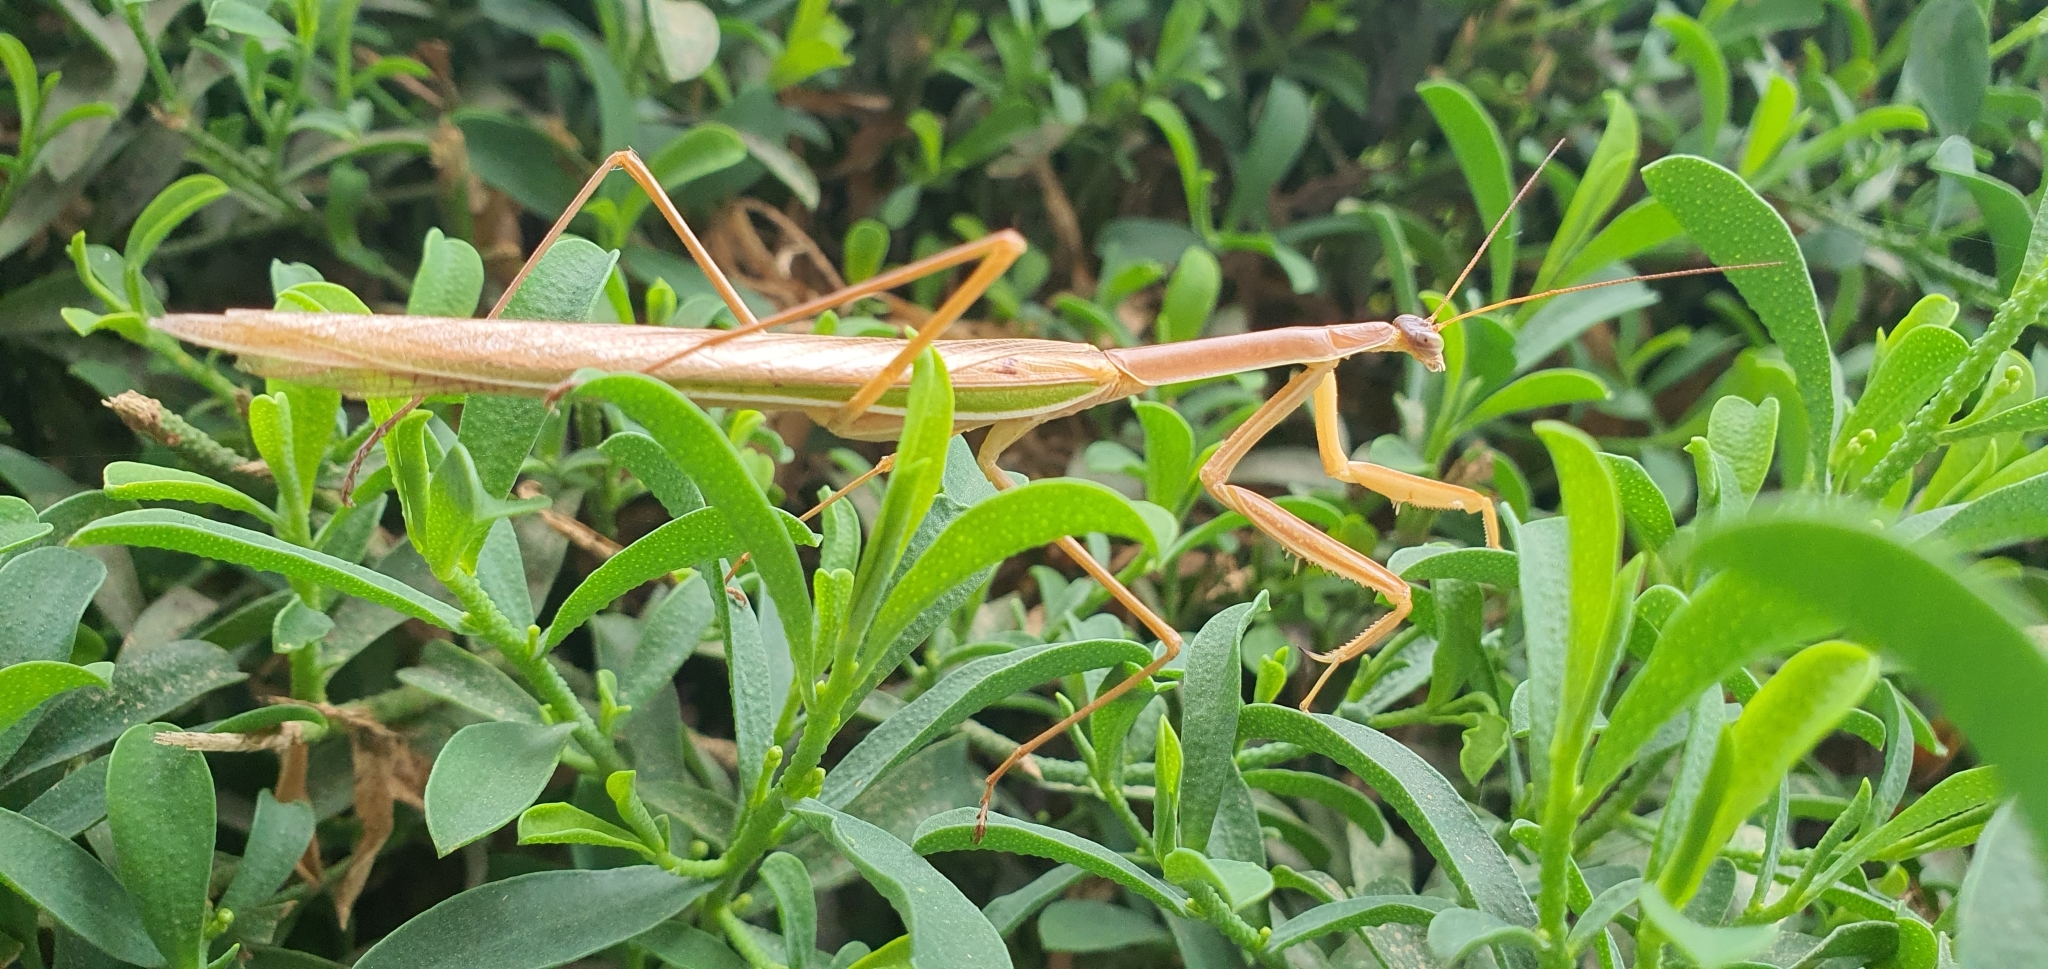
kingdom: Animalia
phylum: Arthropoda
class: Insecta
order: Mantodea
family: Mantidae
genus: Tenodera
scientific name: Tenodera australasiae
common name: Purple-winged mantis
